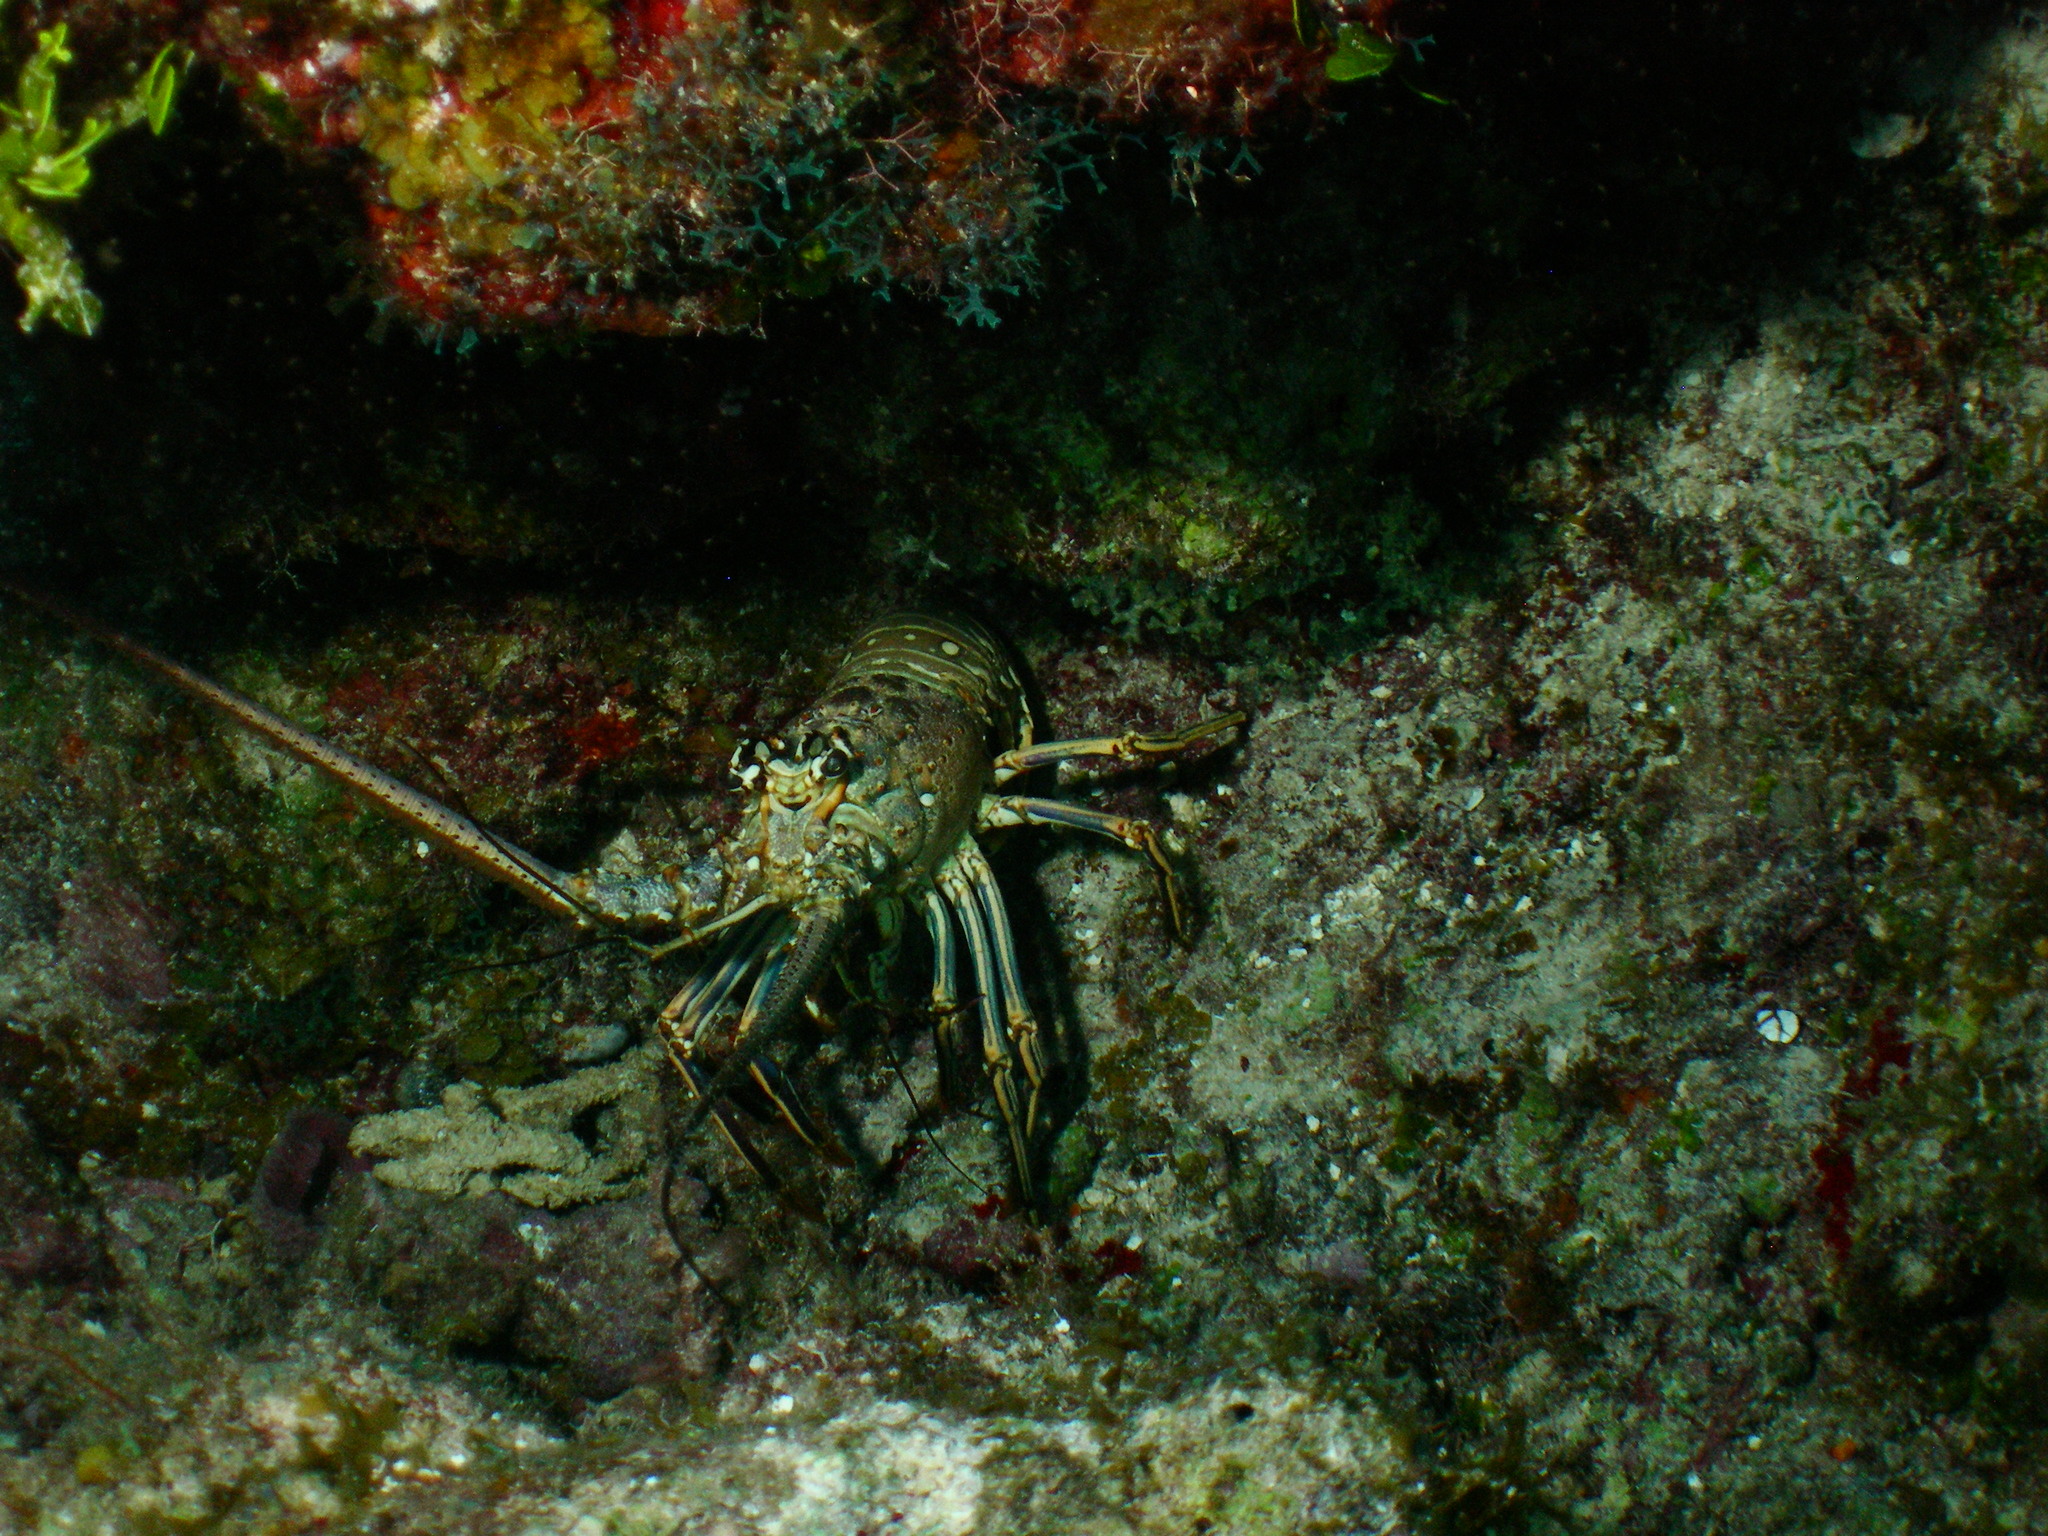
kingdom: Animalia
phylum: Arthropoda
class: Malacostraca
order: Decapoda
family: Palinuridae
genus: Panulirus
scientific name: Panulirus argus
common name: Caribbean spiny lobster
